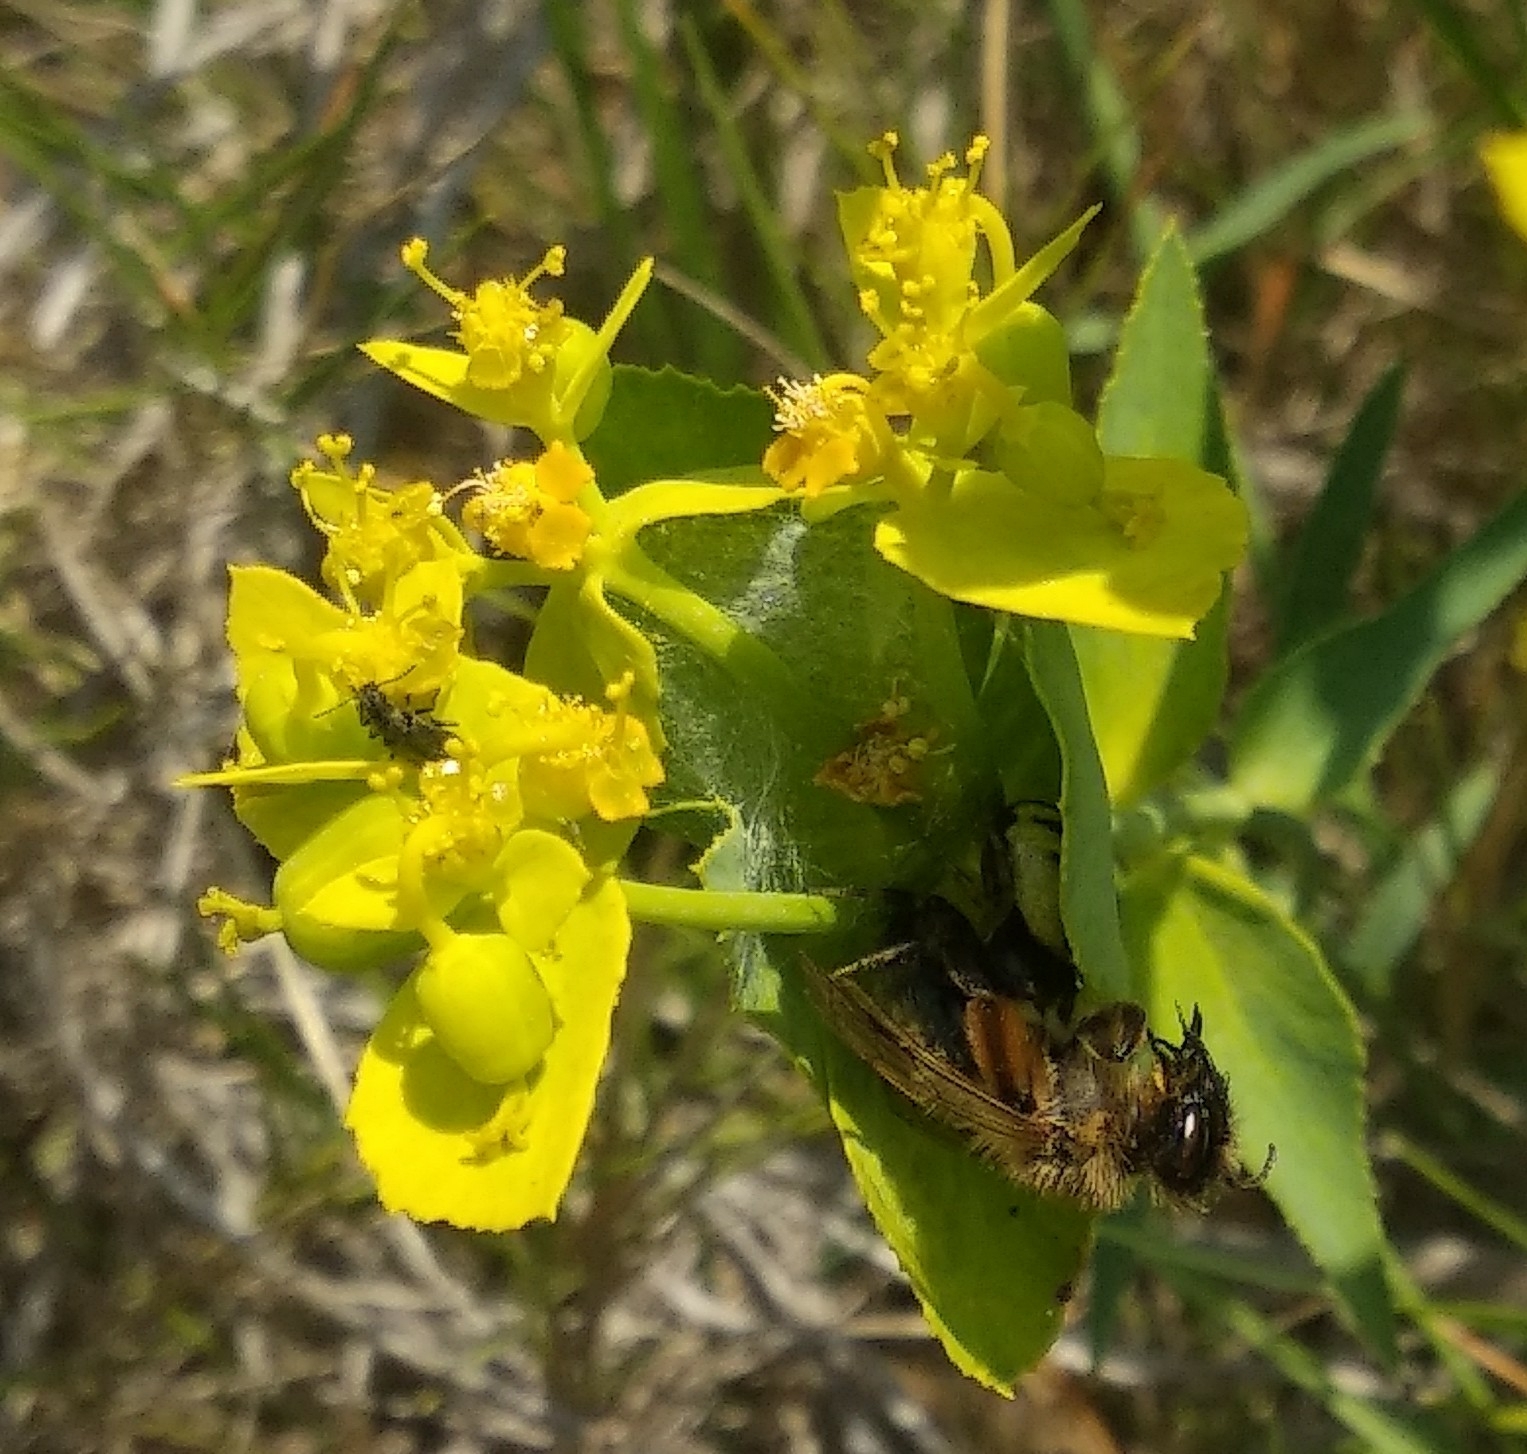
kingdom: Animalia
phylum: Arthropoda
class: Arachnida
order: Araneae
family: Thomisidae
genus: Synema
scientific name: Synema globosum
